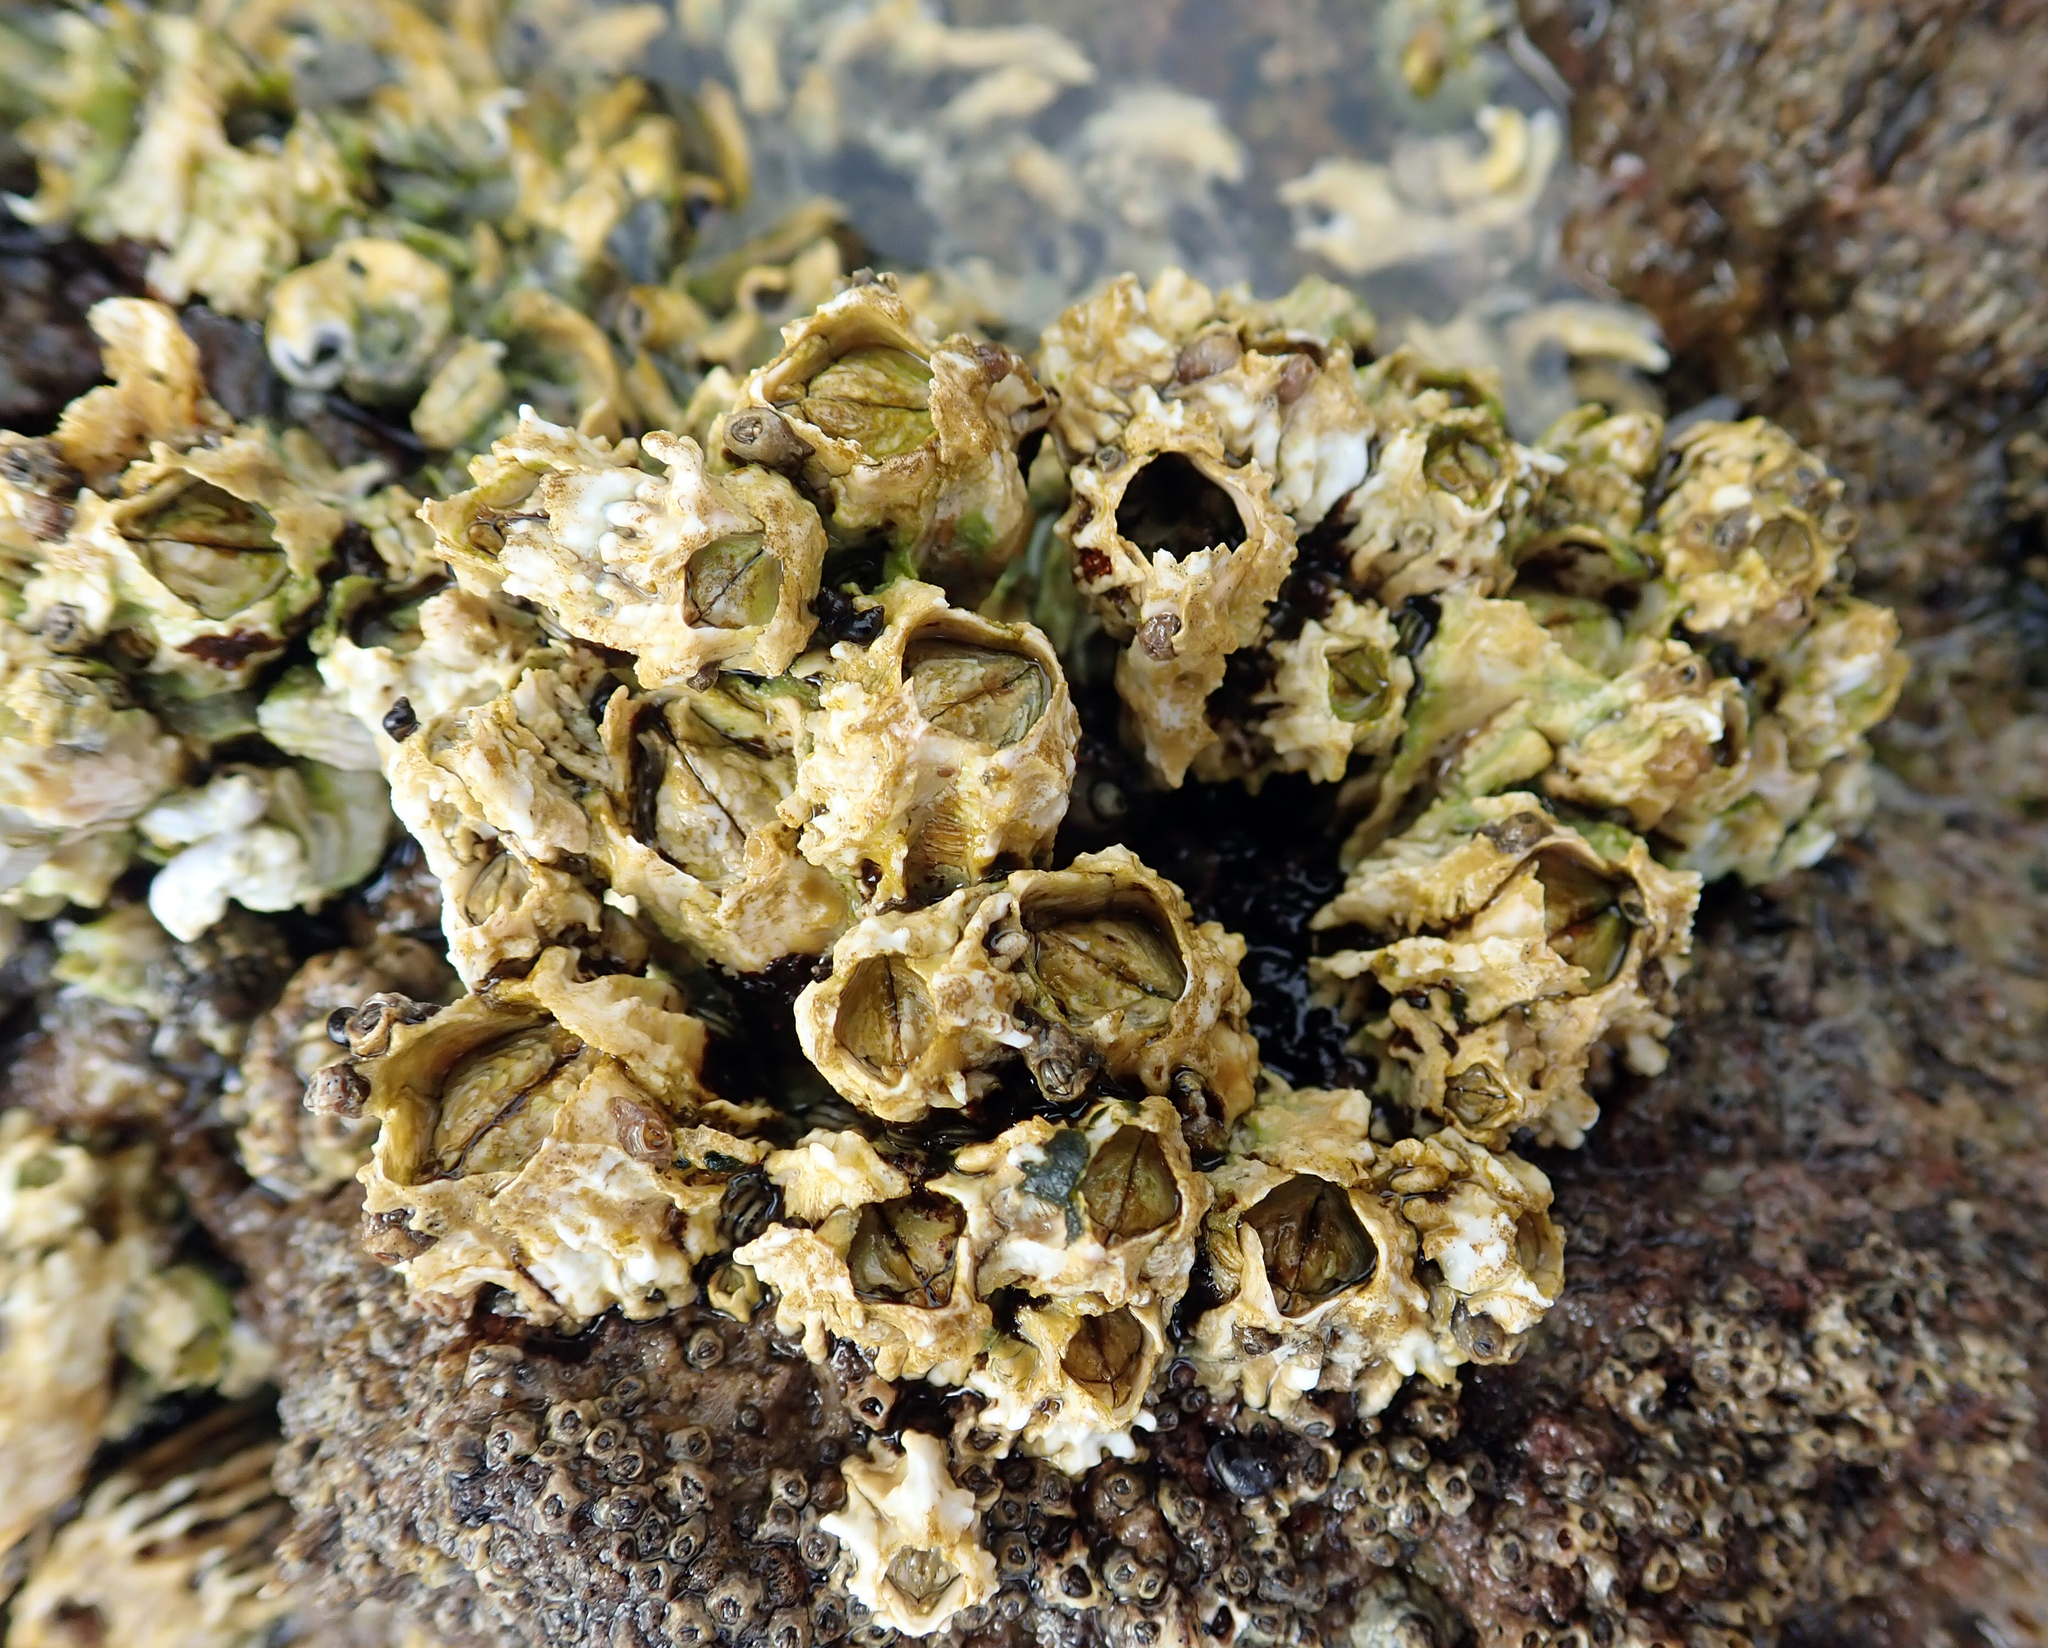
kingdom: Animalia
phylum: Arthropoda
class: Maxillopoda
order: Sessilia
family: Tetraclitidae
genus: Epopella
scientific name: Epopella plicata
